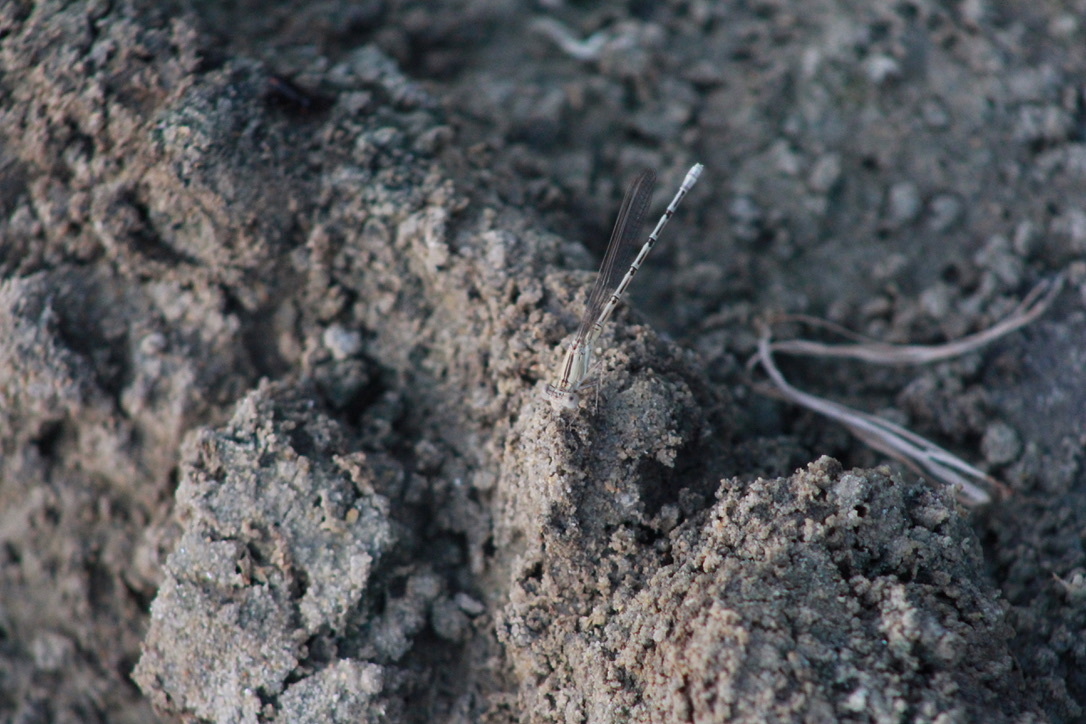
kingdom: Animalia
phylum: Arthropoda
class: Insecta
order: Odonata
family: Coenagrionidae
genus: Argia
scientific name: Argia nahuana
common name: Aztec dancer
